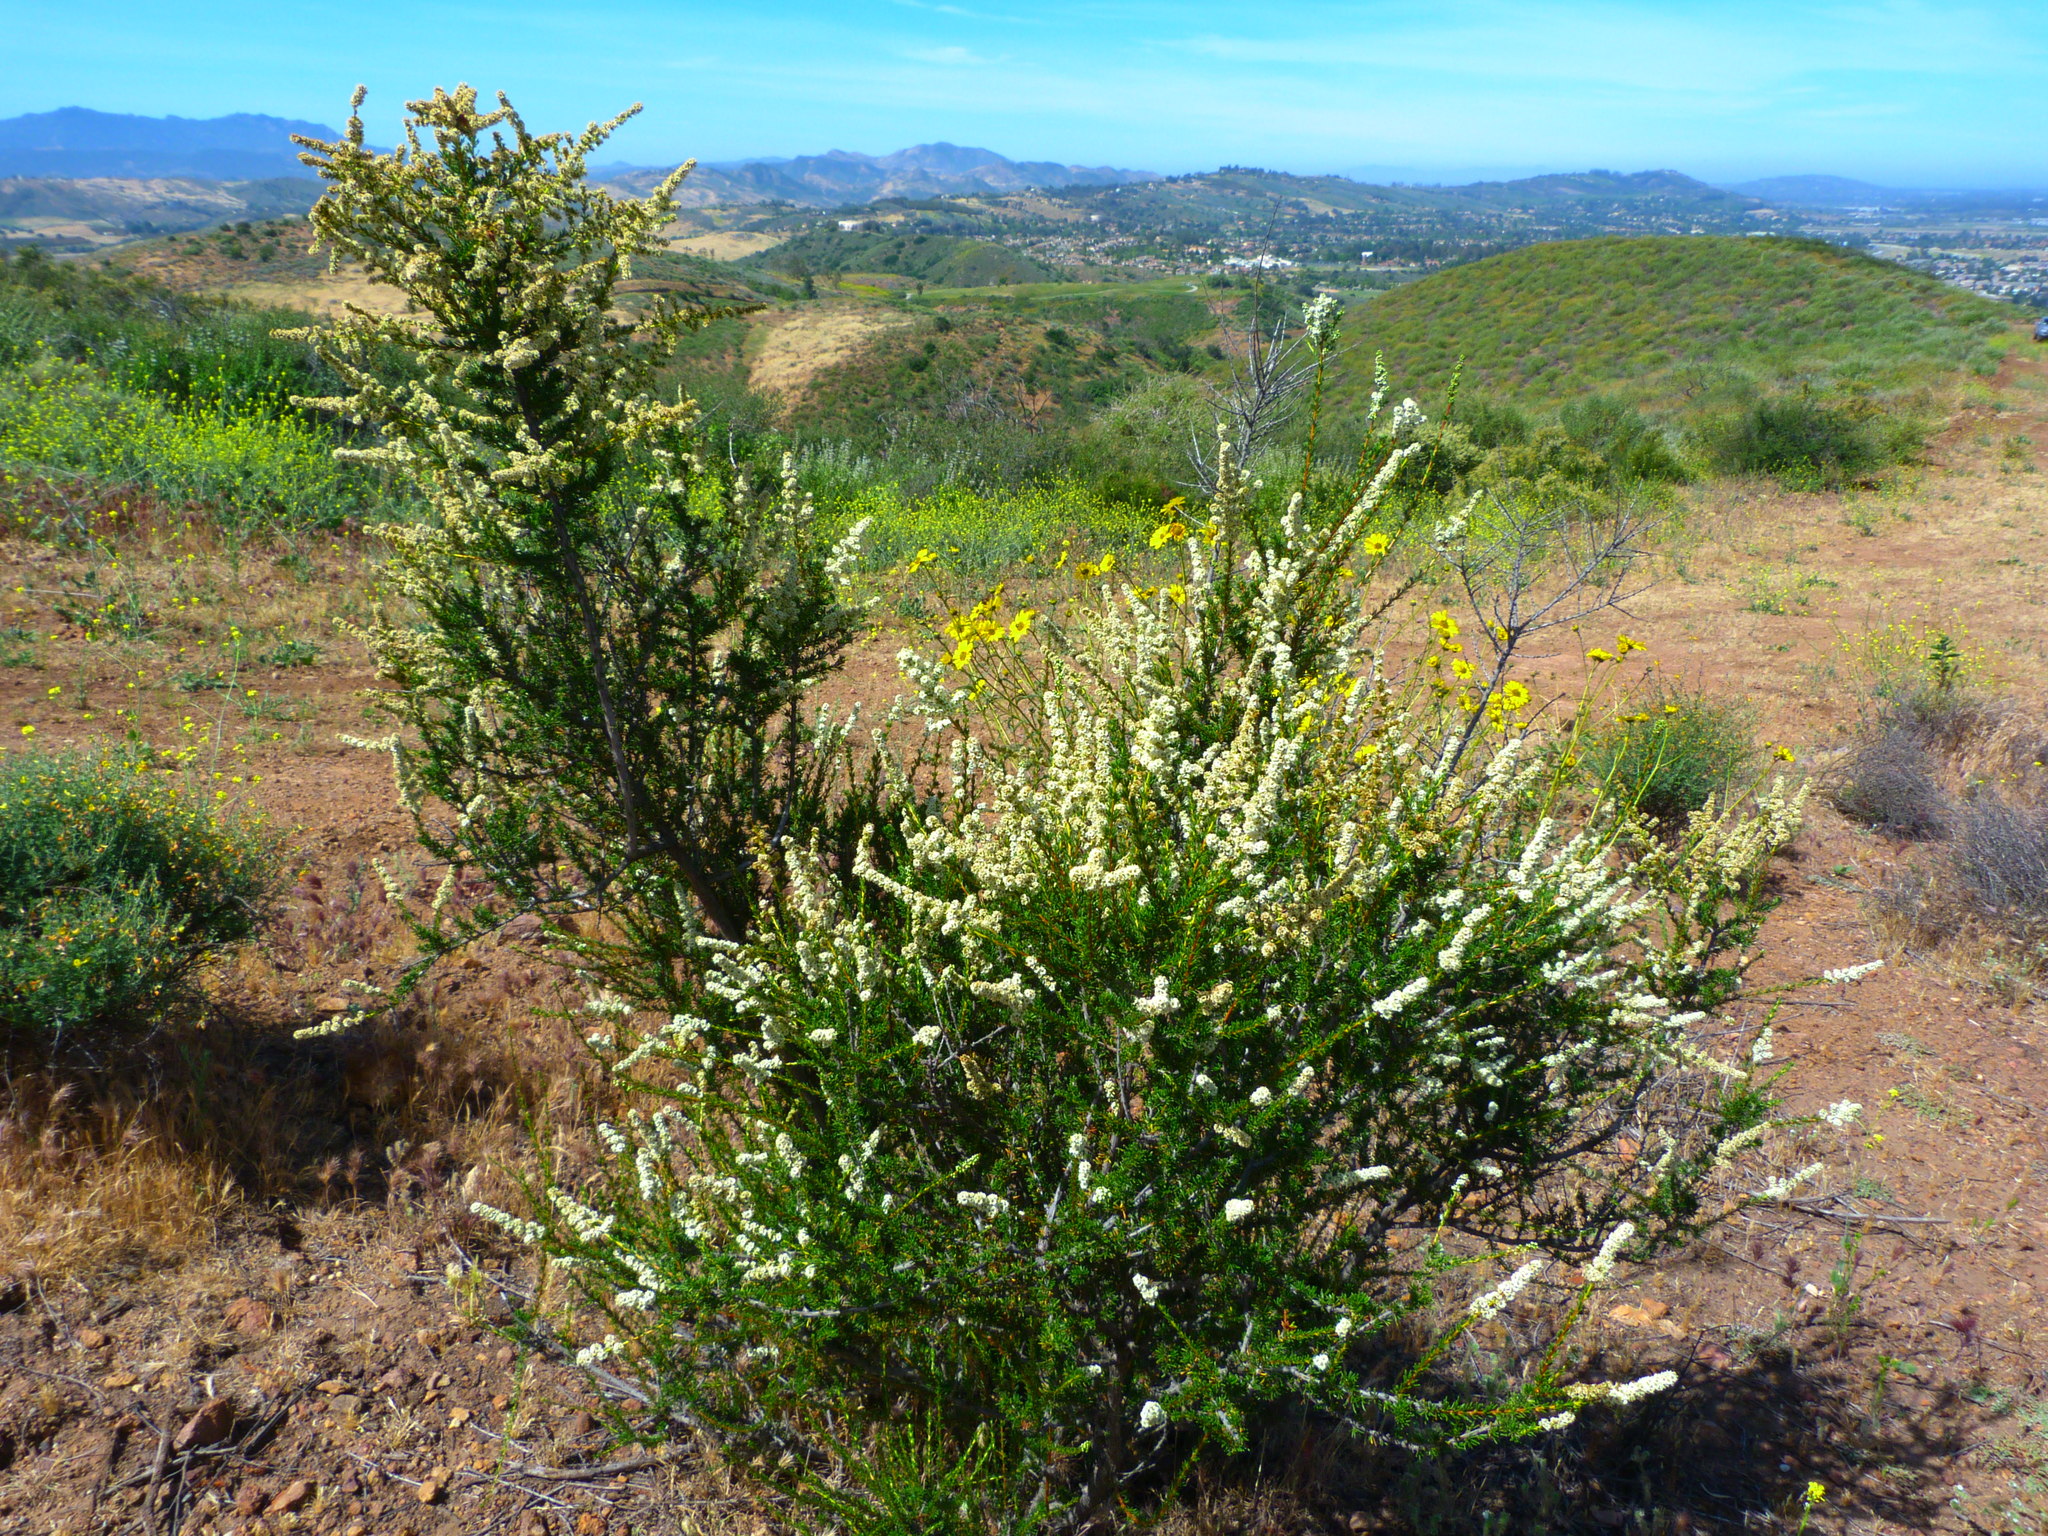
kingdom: Plantae
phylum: Tracheophyta
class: Magnoliopsida
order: Rosales
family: Rosaceae
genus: Adenostoma
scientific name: Adenostoma fasciculatum
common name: Chamise
